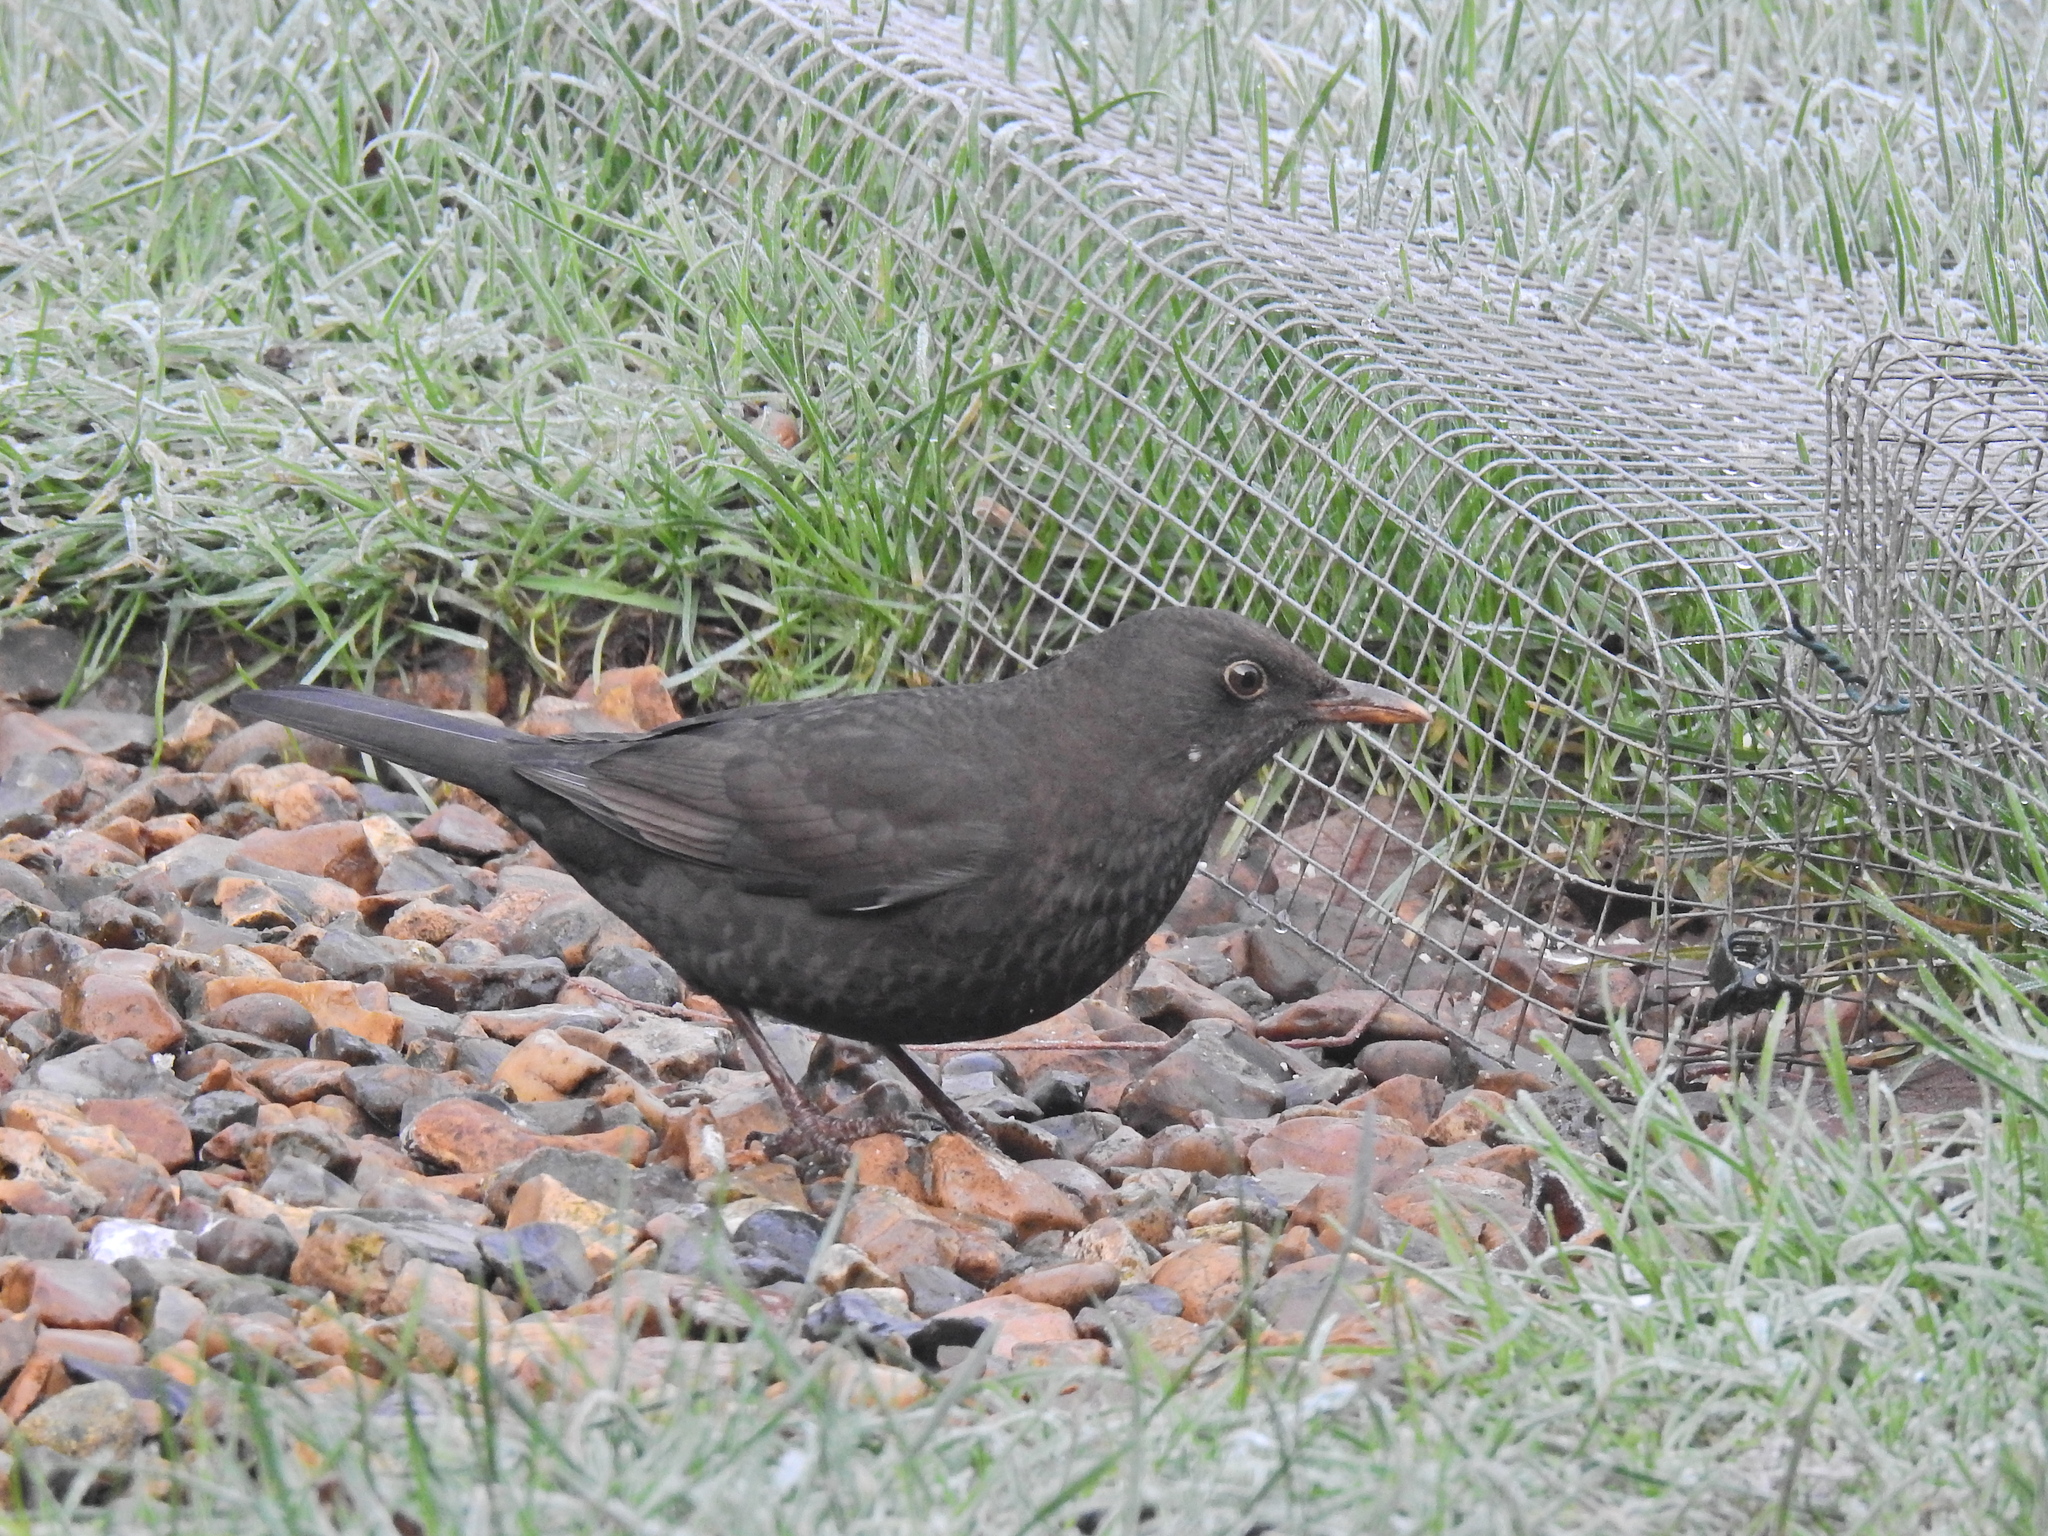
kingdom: Animalia
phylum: Chordata
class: Aves
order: Passeriformes
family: Turdidae
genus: Turdus
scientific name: Turdus merula
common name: Common blackbird
